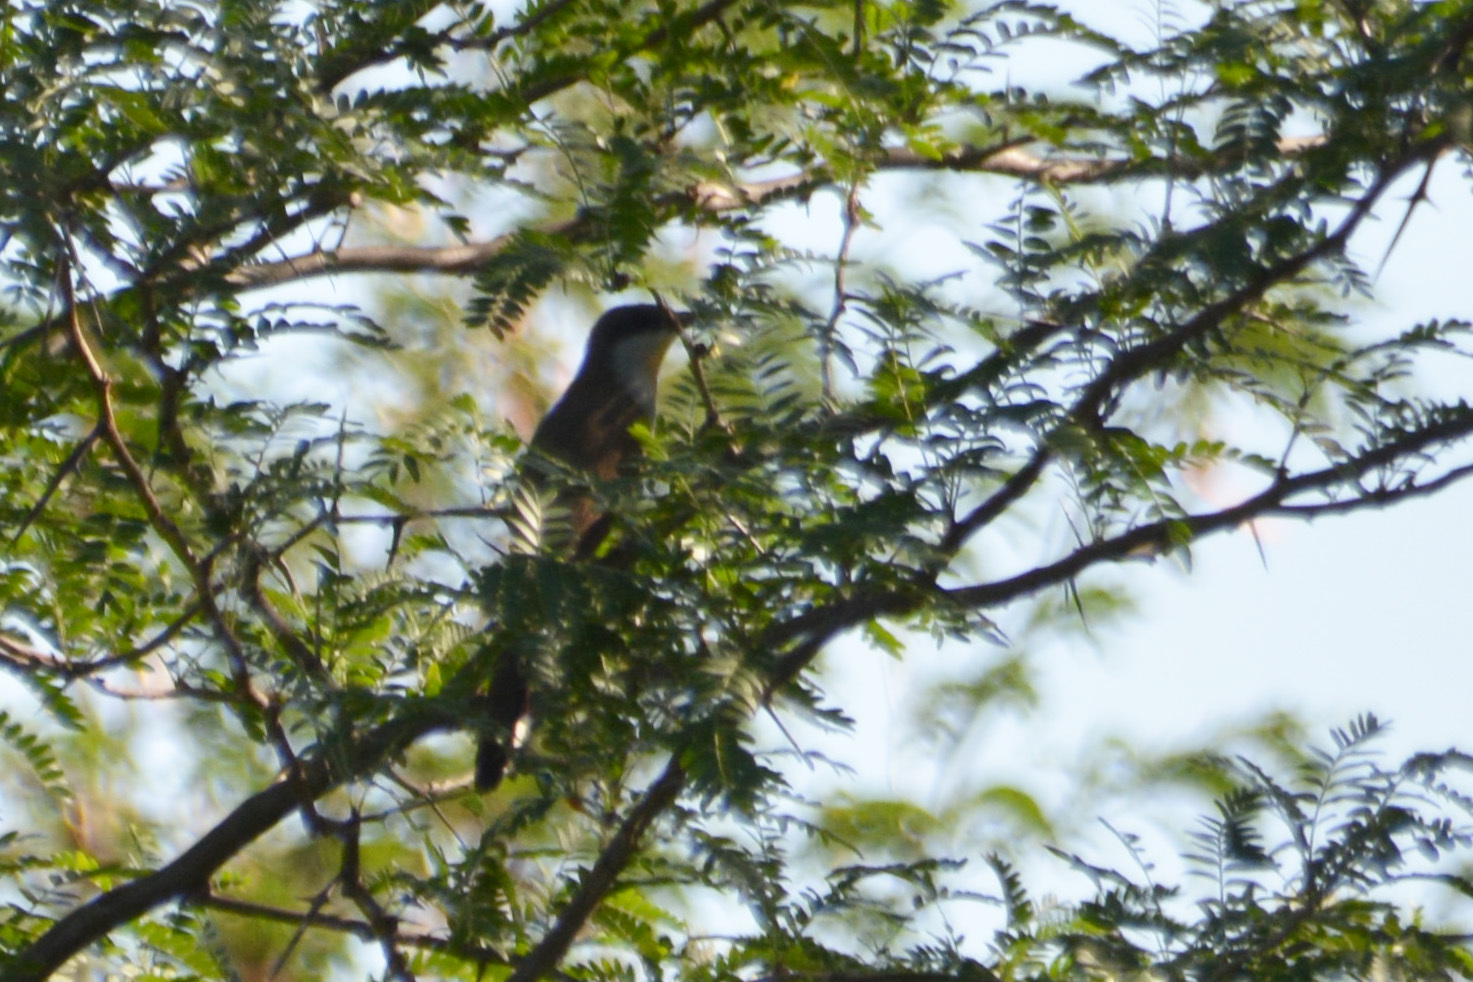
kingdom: Animalia
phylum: Chordata
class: Aves
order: Cuculiformes
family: Cuculidae
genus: Coccyzus
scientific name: Coccyzus melacoryphus
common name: Dark-billed cuckoo
